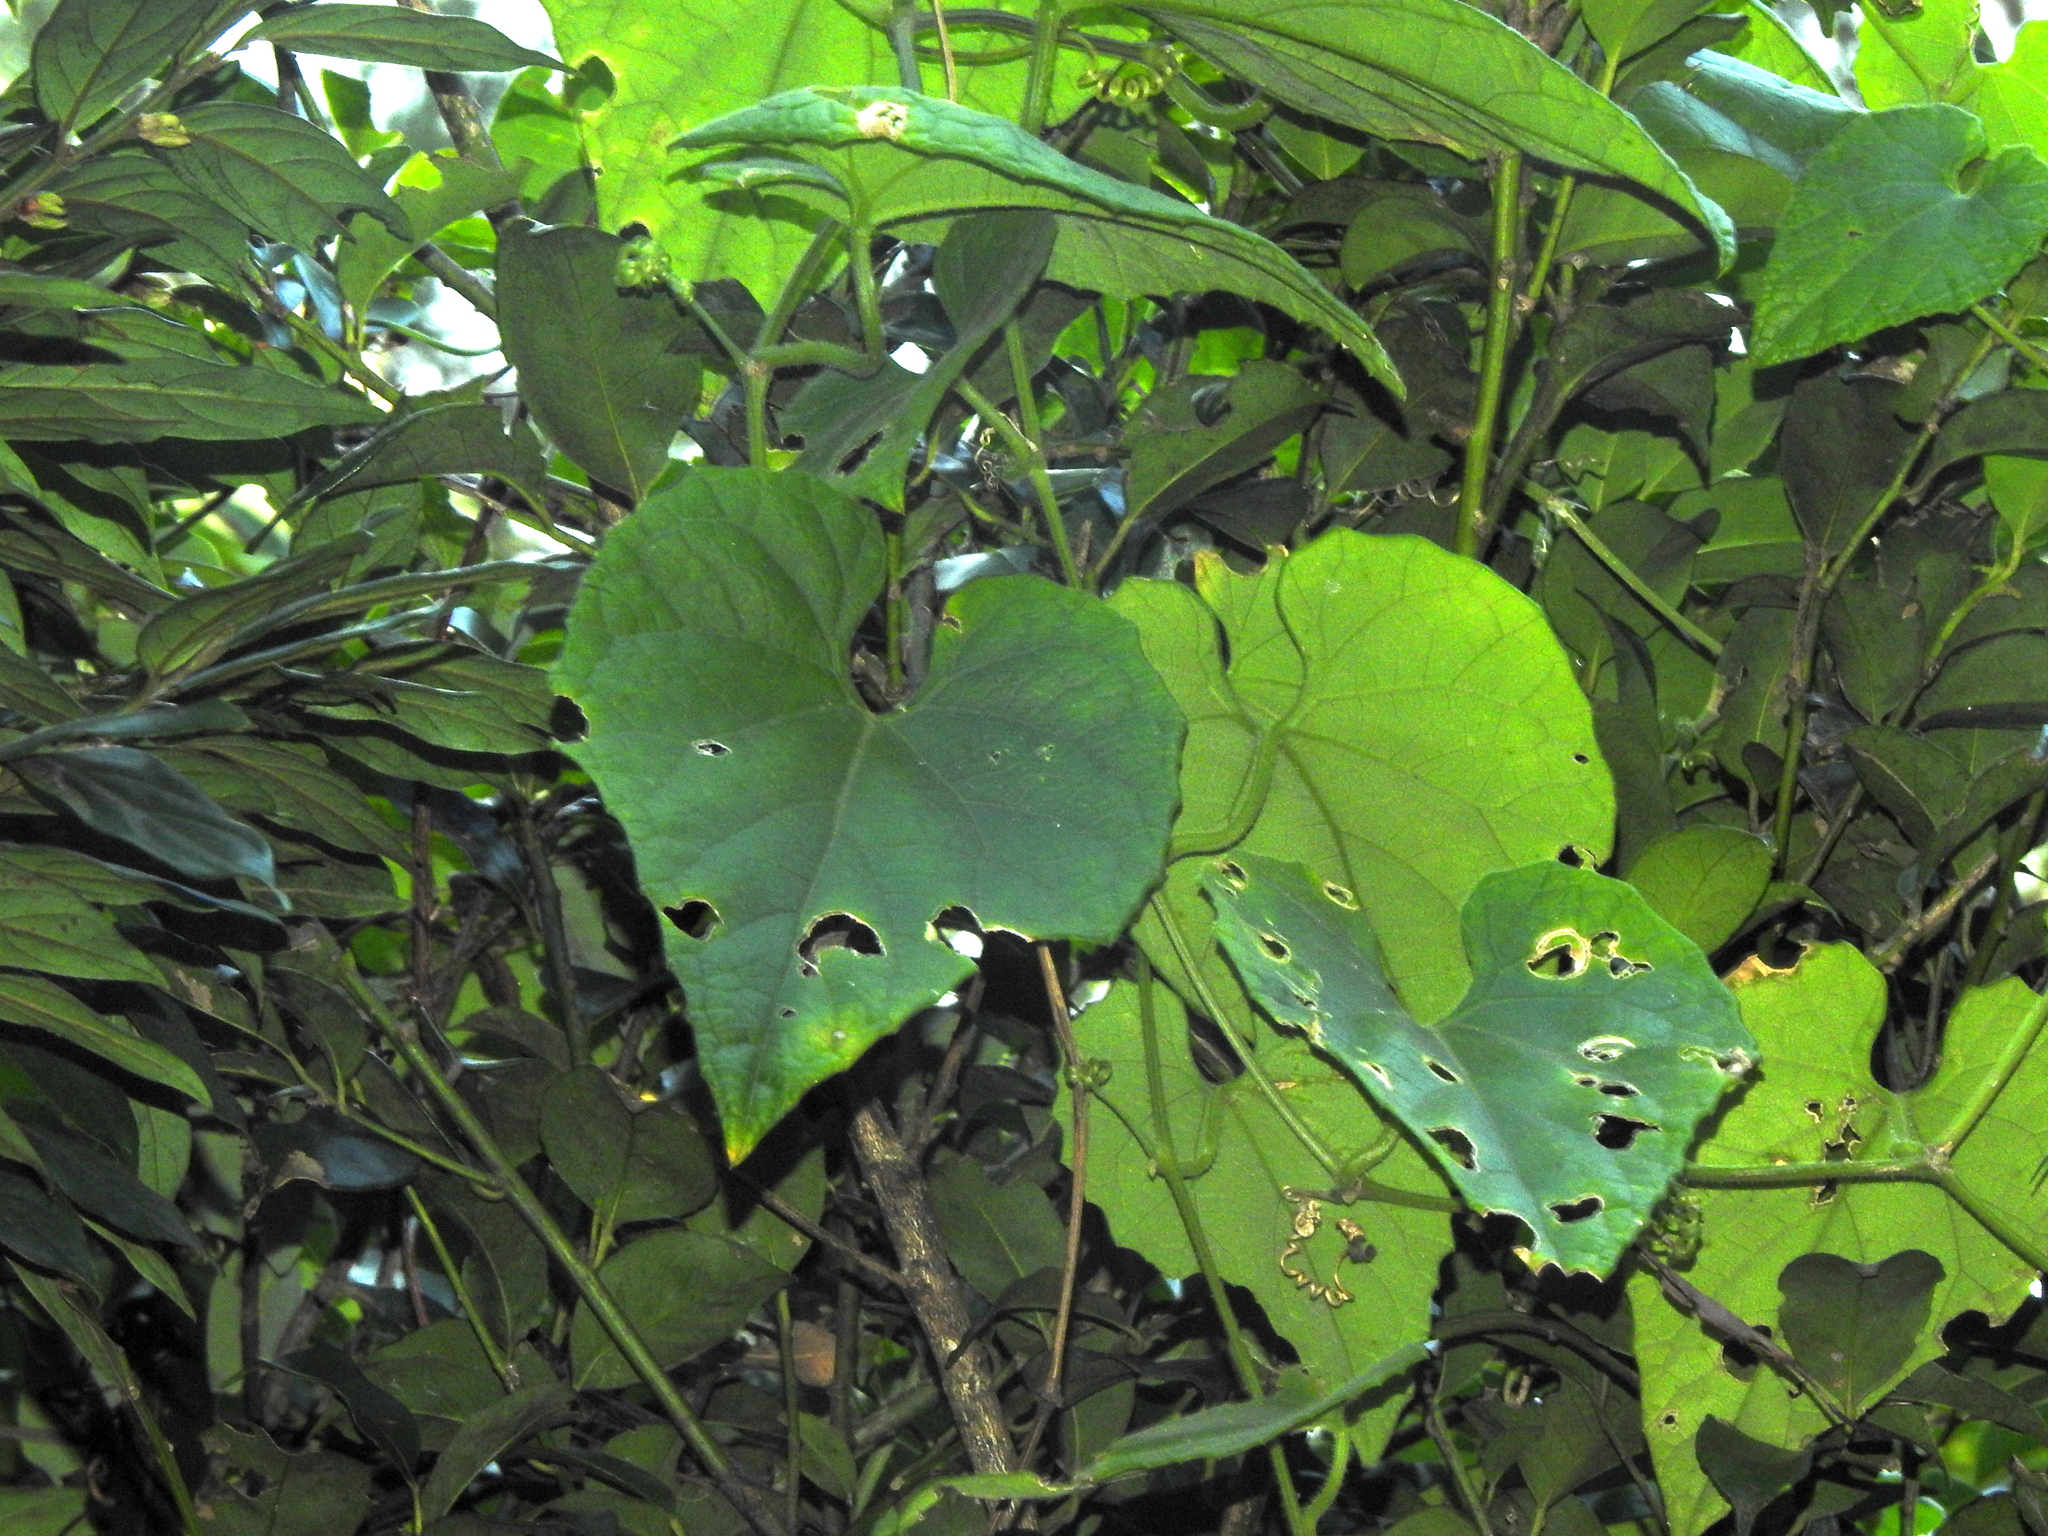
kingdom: Plantae
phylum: Tracheophyta
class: Magnoliopsida
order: Cucurbitales
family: Cucurbitaceae
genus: Trichosanthes
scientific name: Trichosanthes cucumeroides
